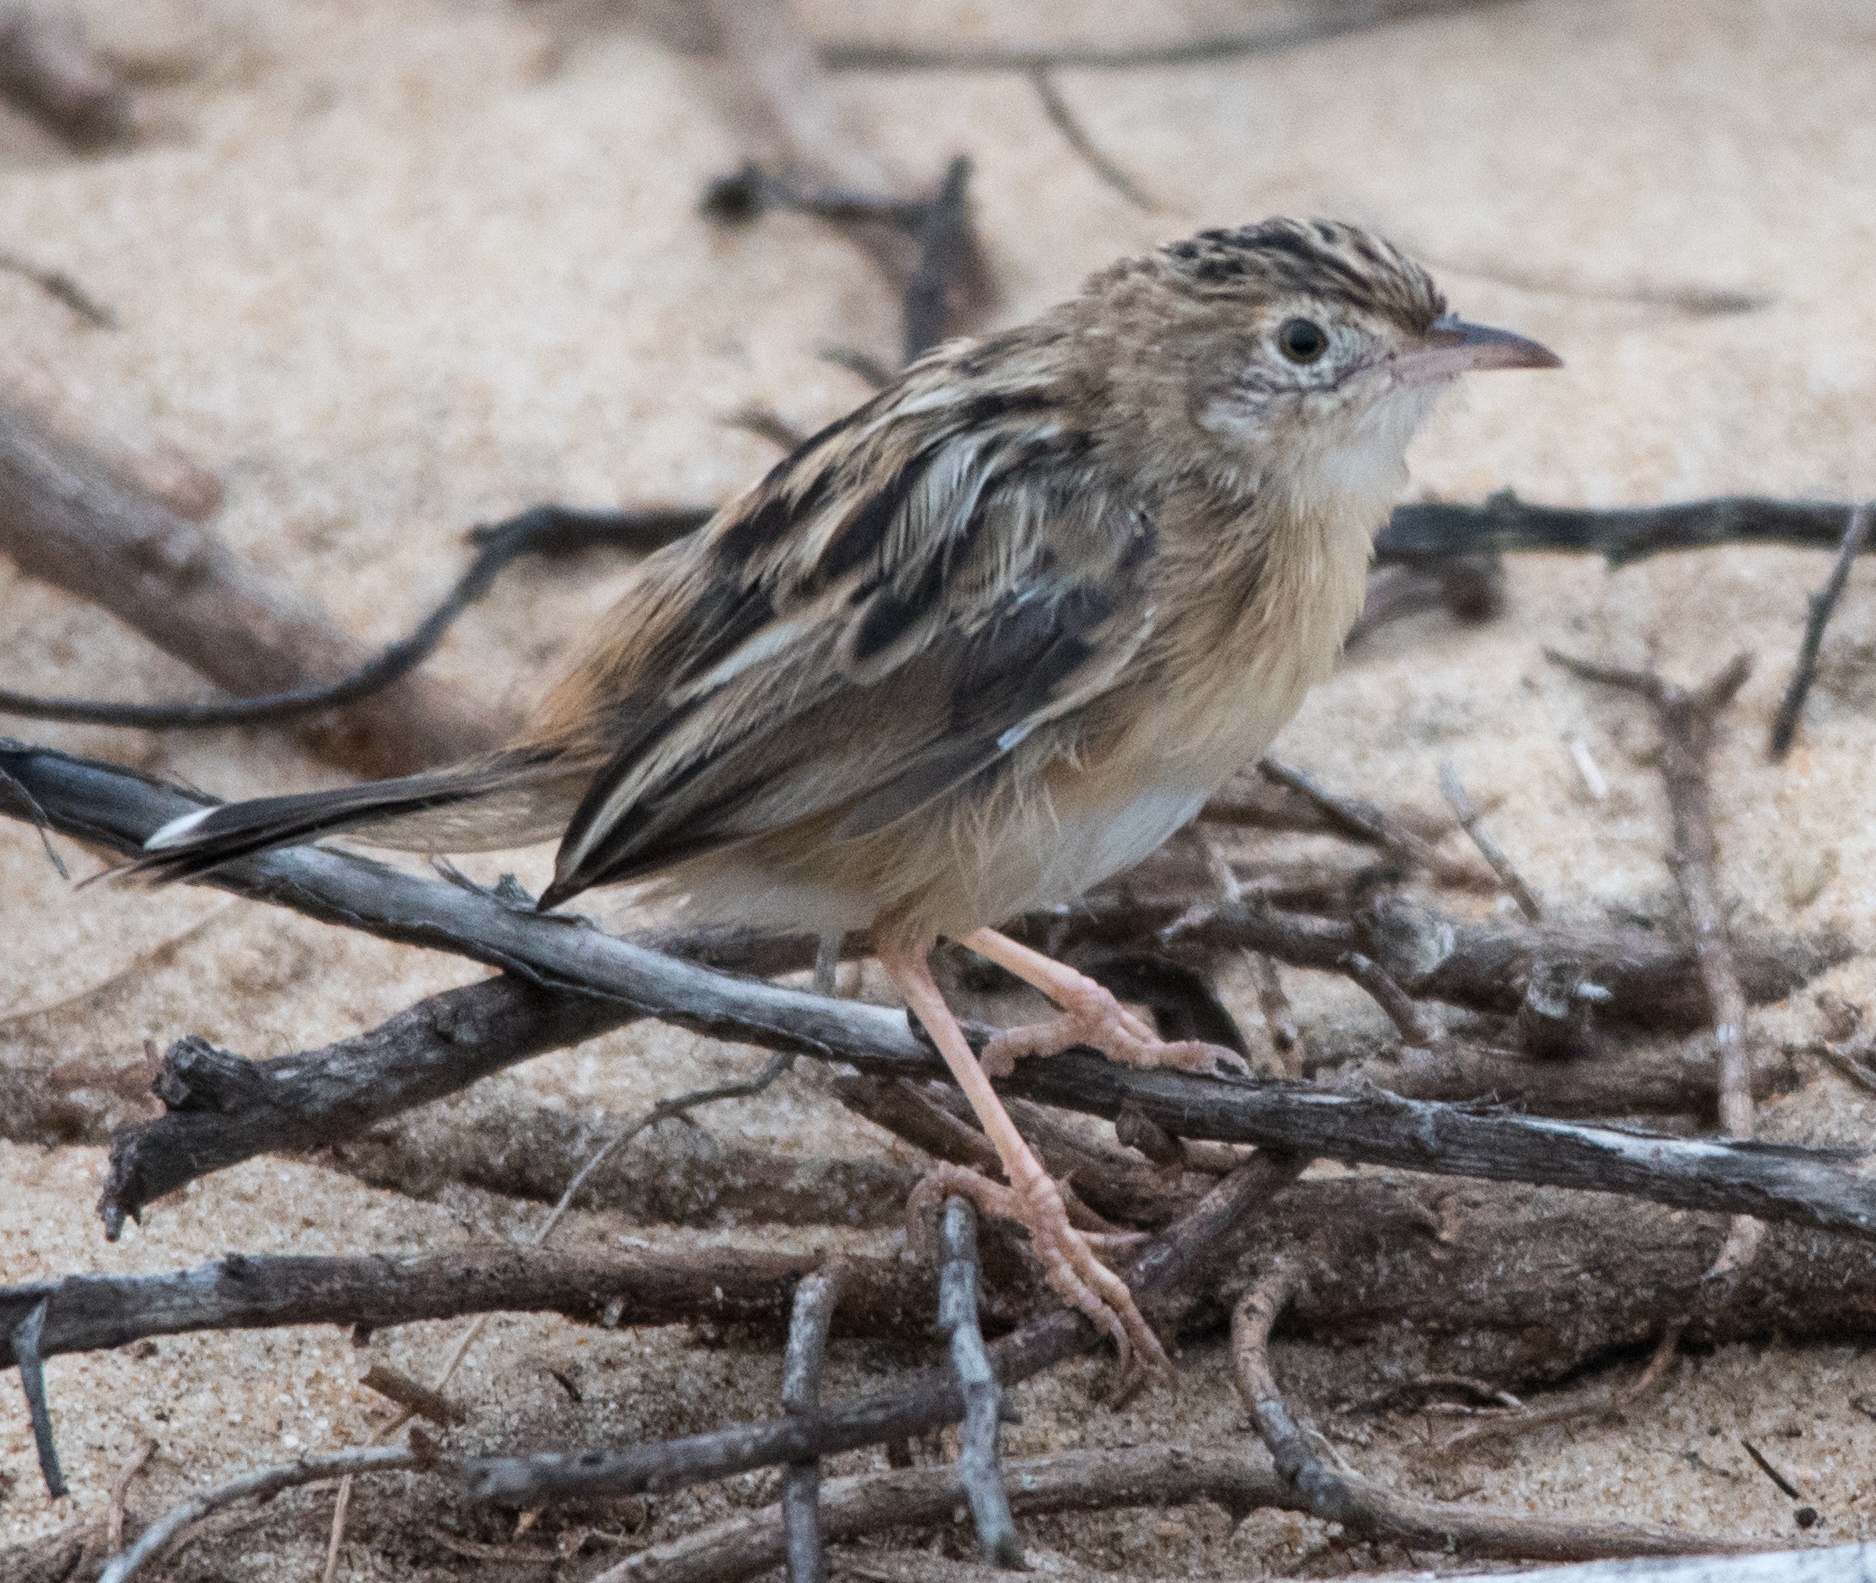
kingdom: Animalia
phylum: Chordata
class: Aves
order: Passeriformes
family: Cisticolidae
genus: Cisticola
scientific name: Cisticola juncidis
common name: Zitting cisticola
